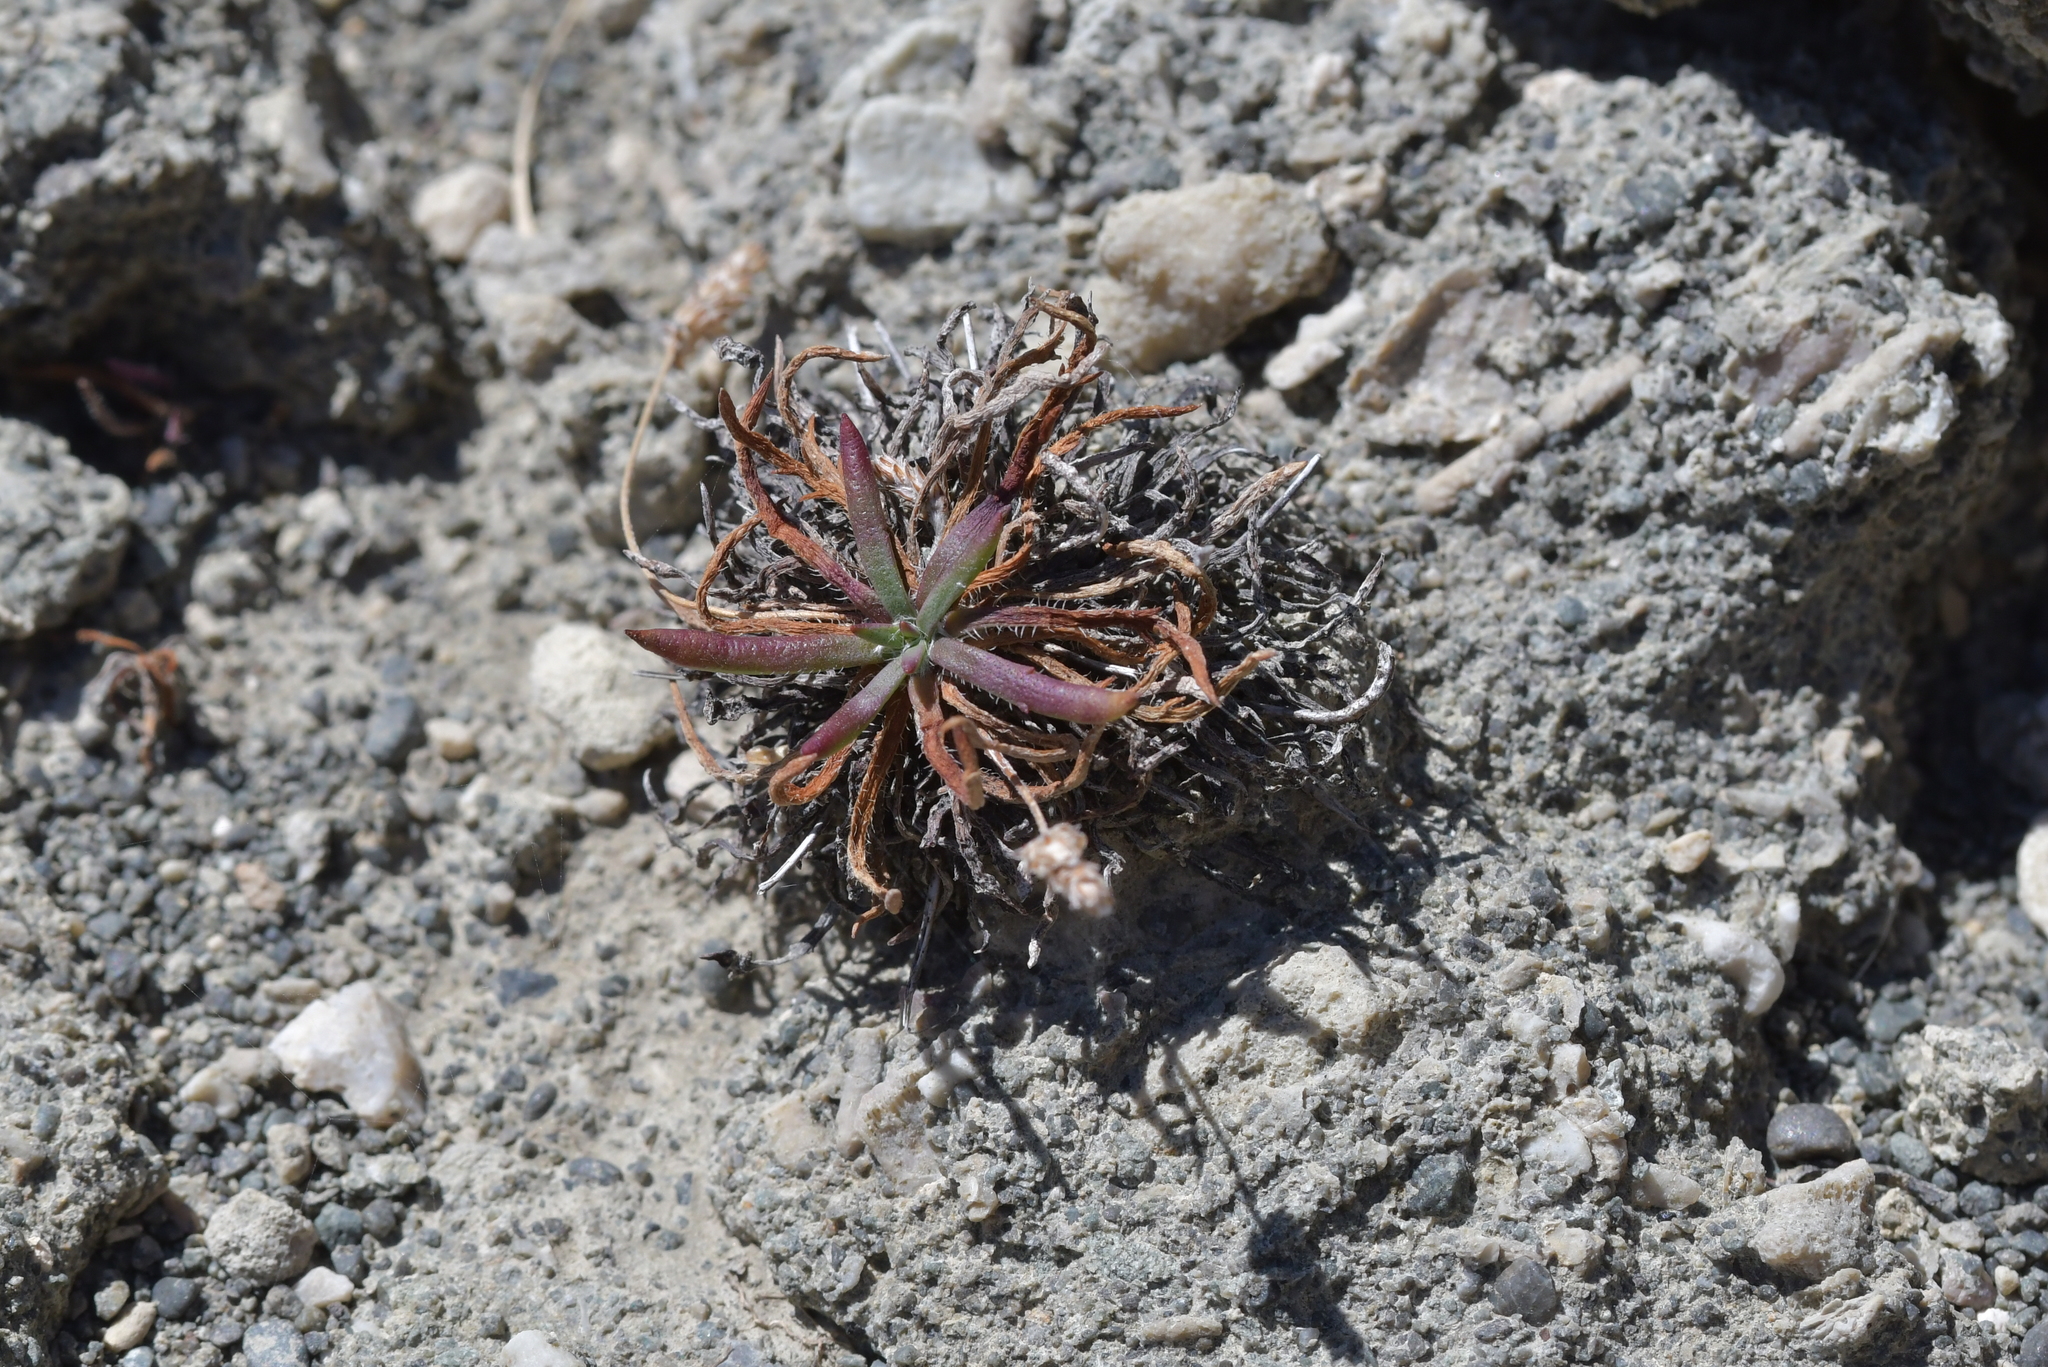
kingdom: Plantae
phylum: Tracheophyta
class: Magnoliopsida
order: Lamiales
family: Plantaginaceae
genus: Plantago
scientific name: Plantago coronopus
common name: Buck's-horn plantain
